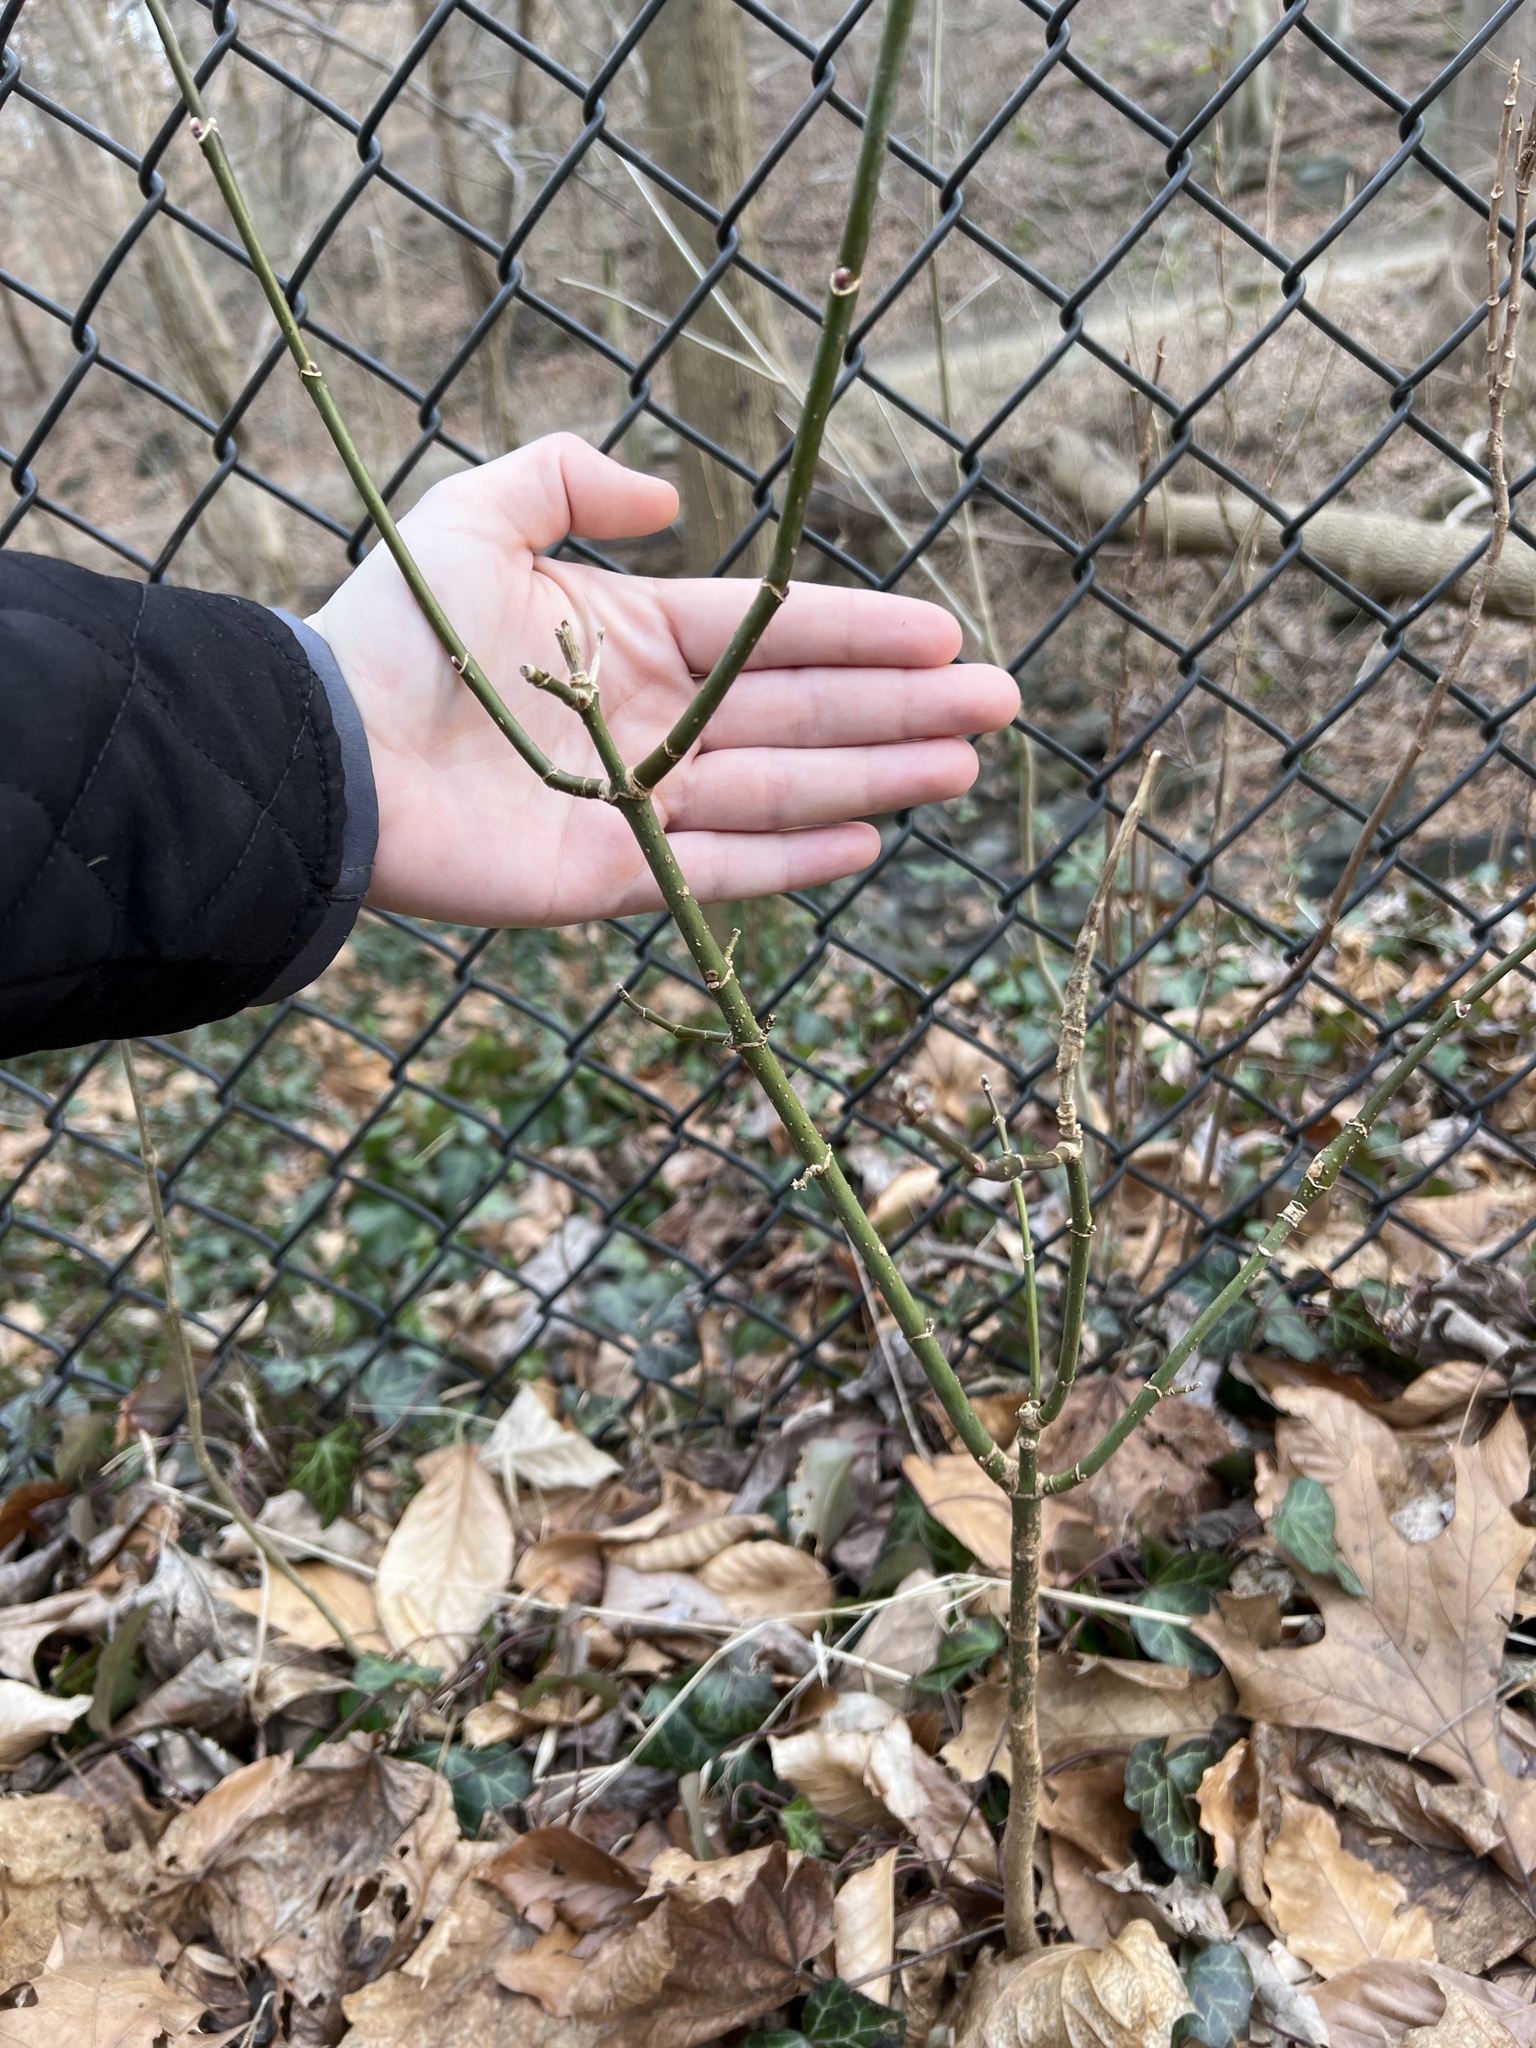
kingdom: Plantae
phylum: Tracheophyta
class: Magnoliopsida
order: Sapindales
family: Sapindaceae
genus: Acer
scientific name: Acer negundo
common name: Ashleaf maple
